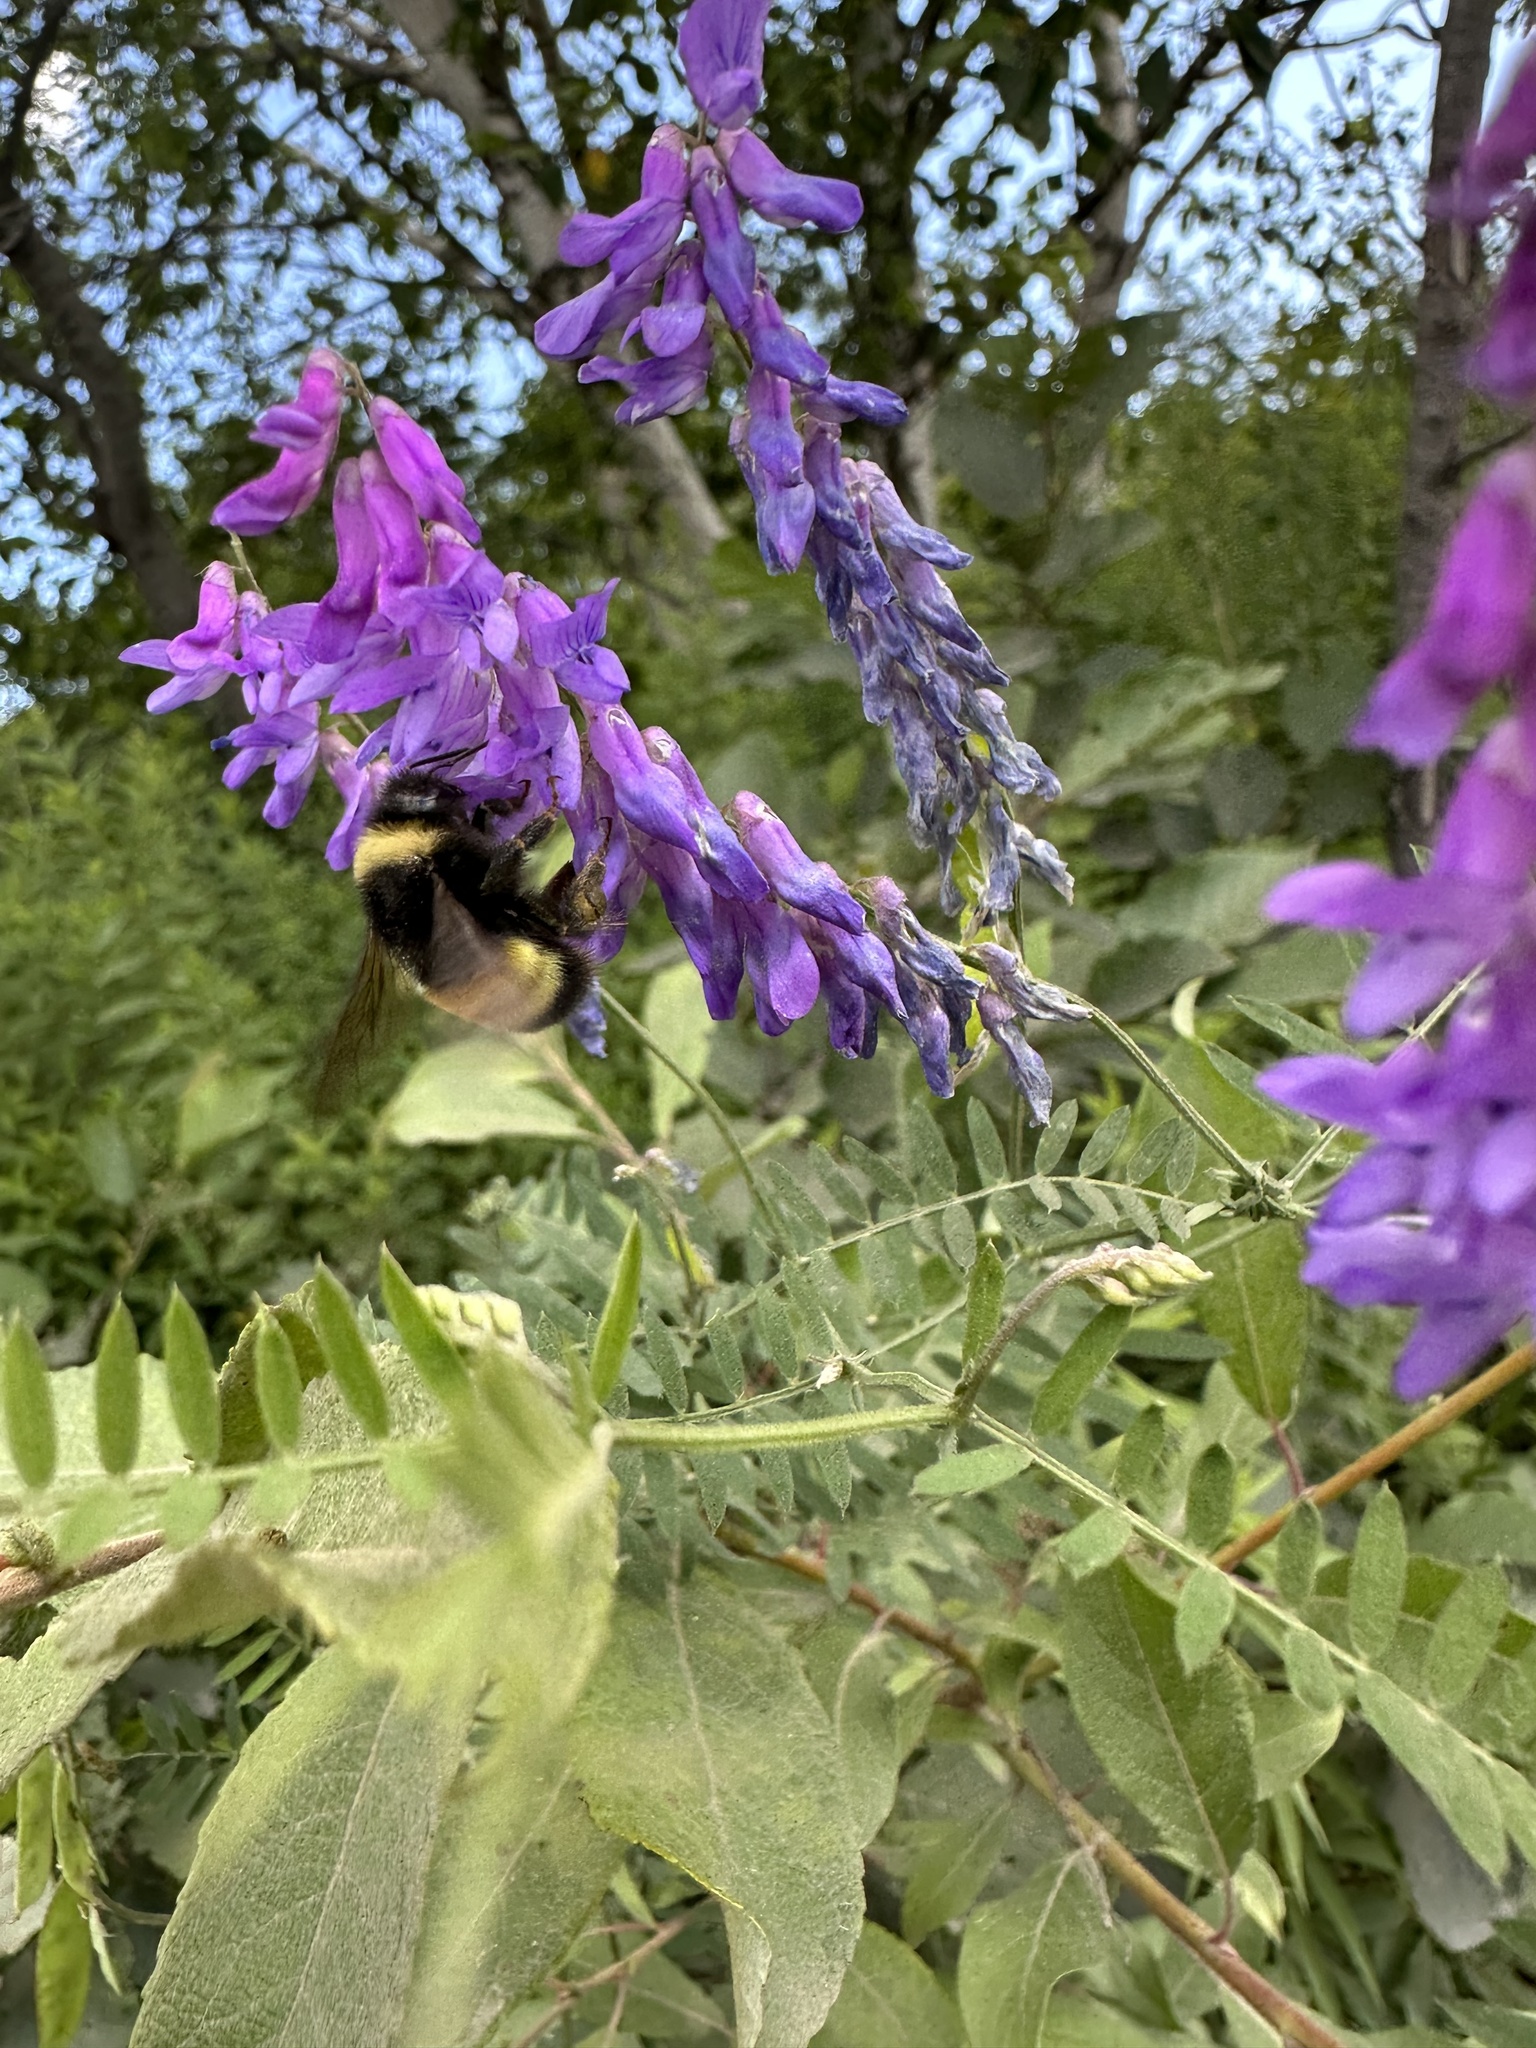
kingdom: Animalia
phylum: Arthropoda
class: Insecta
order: Hymenoptera
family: Apidae
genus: Bombus
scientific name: Bombus terricola
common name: Yellow-banded bumble bee
